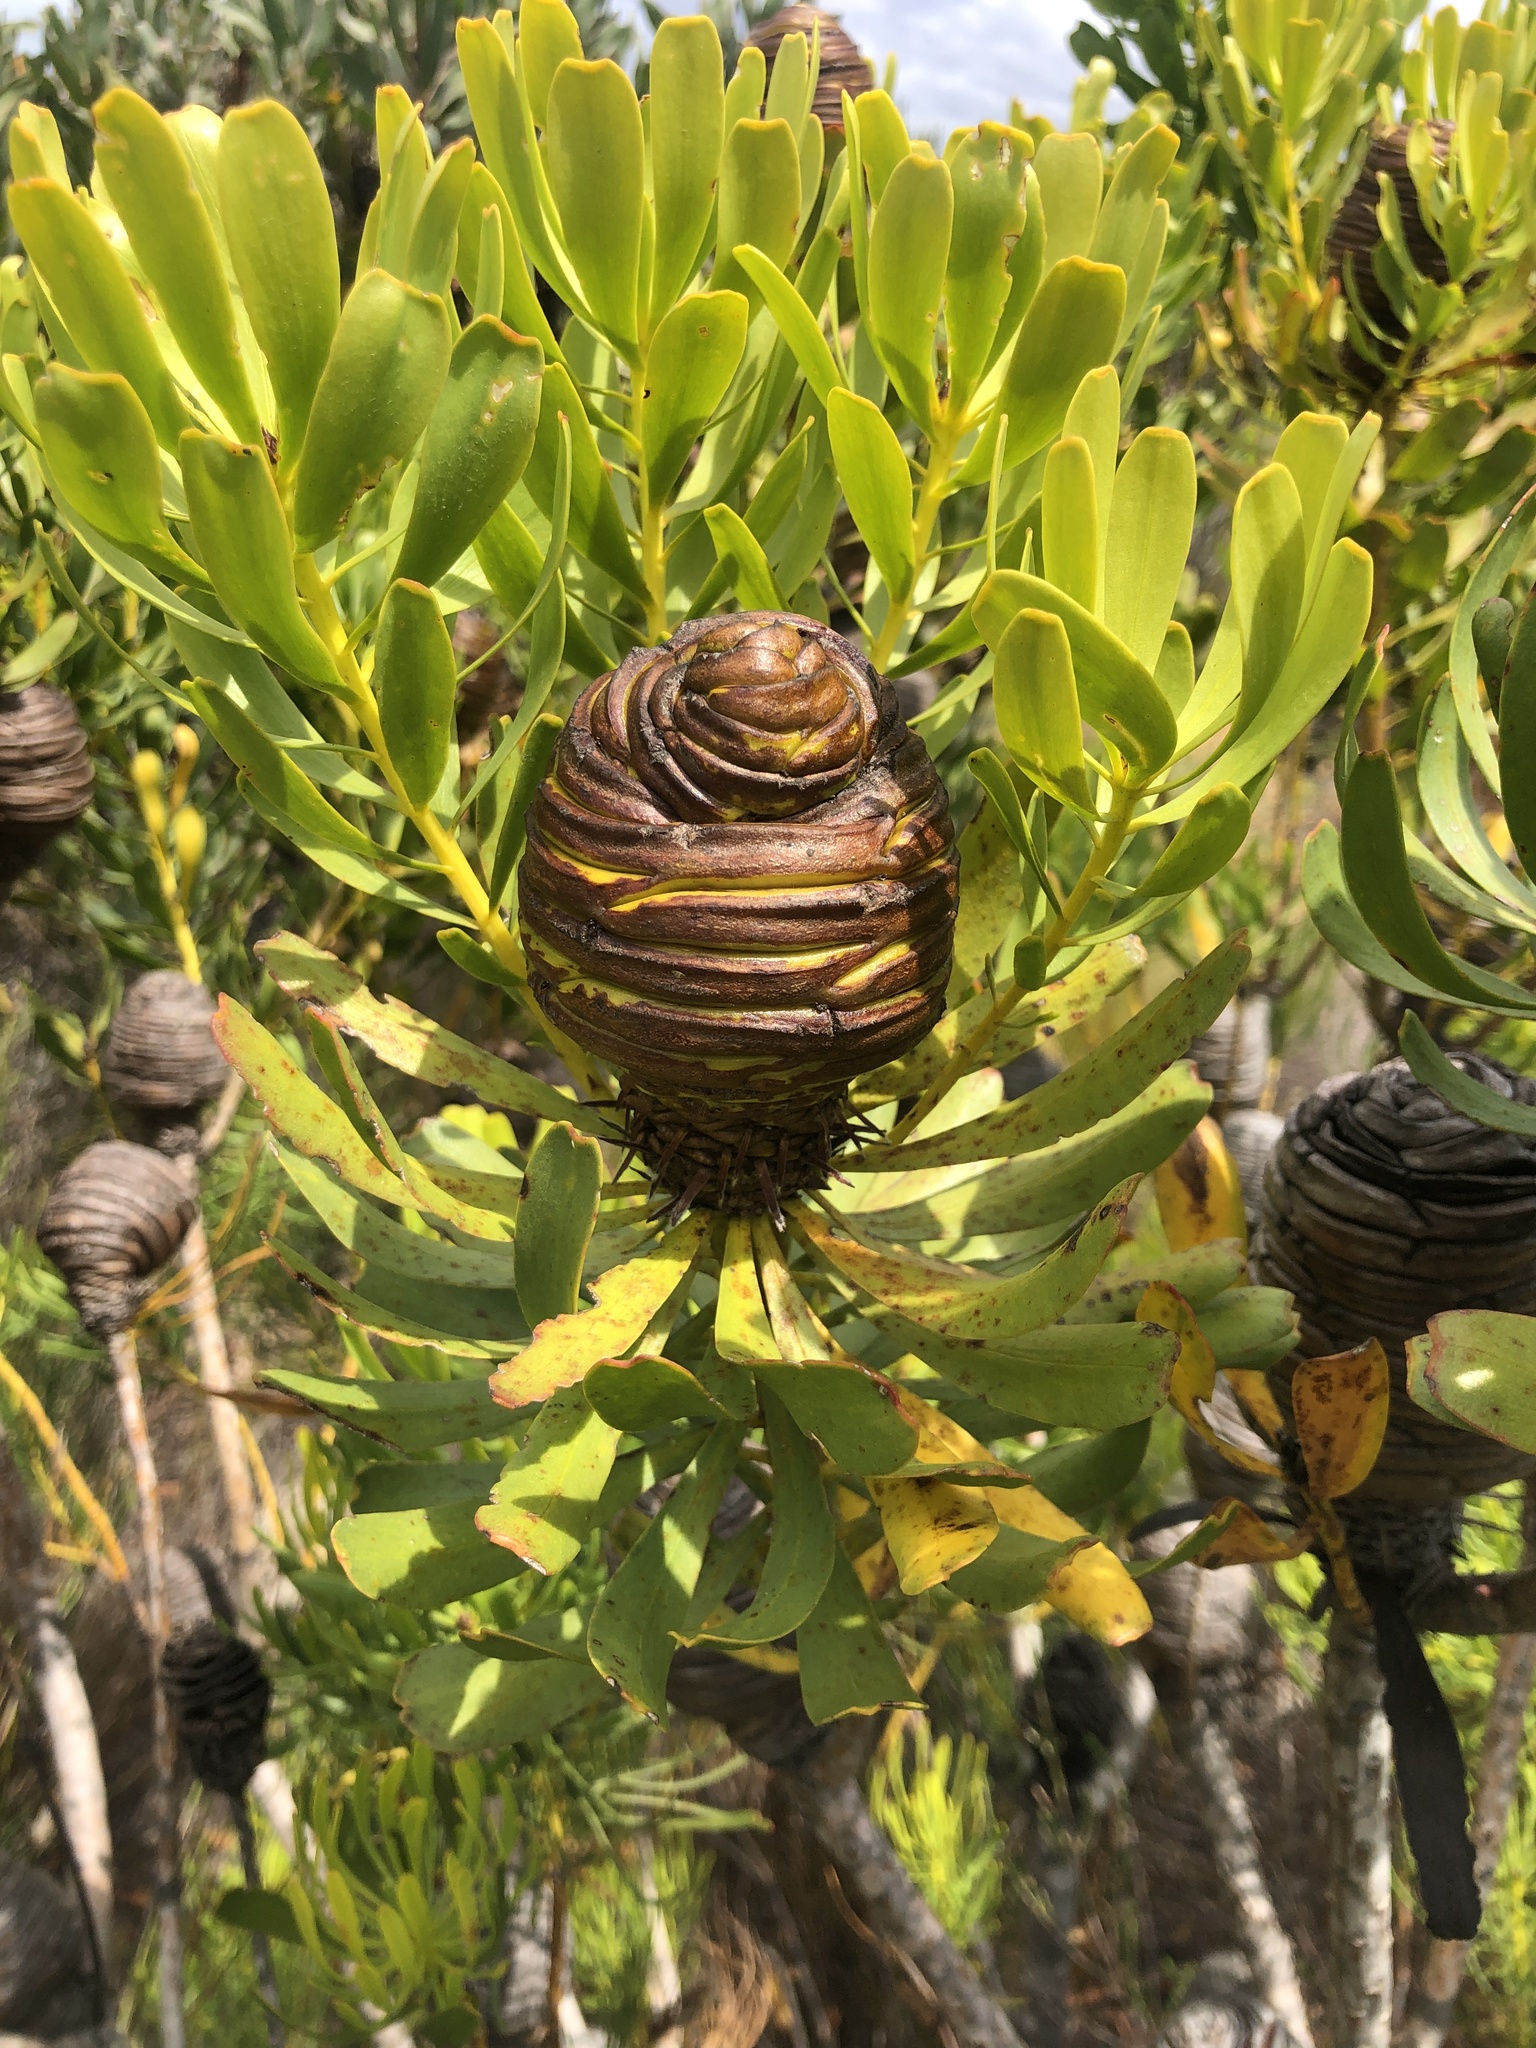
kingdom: Plantae
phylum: Tracheophyta
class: Magnoliopsida
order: Proteales
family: Proteaceae
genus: Leucadendron
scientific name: Leucadendron platyspermum
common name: Plate-seed conebush
